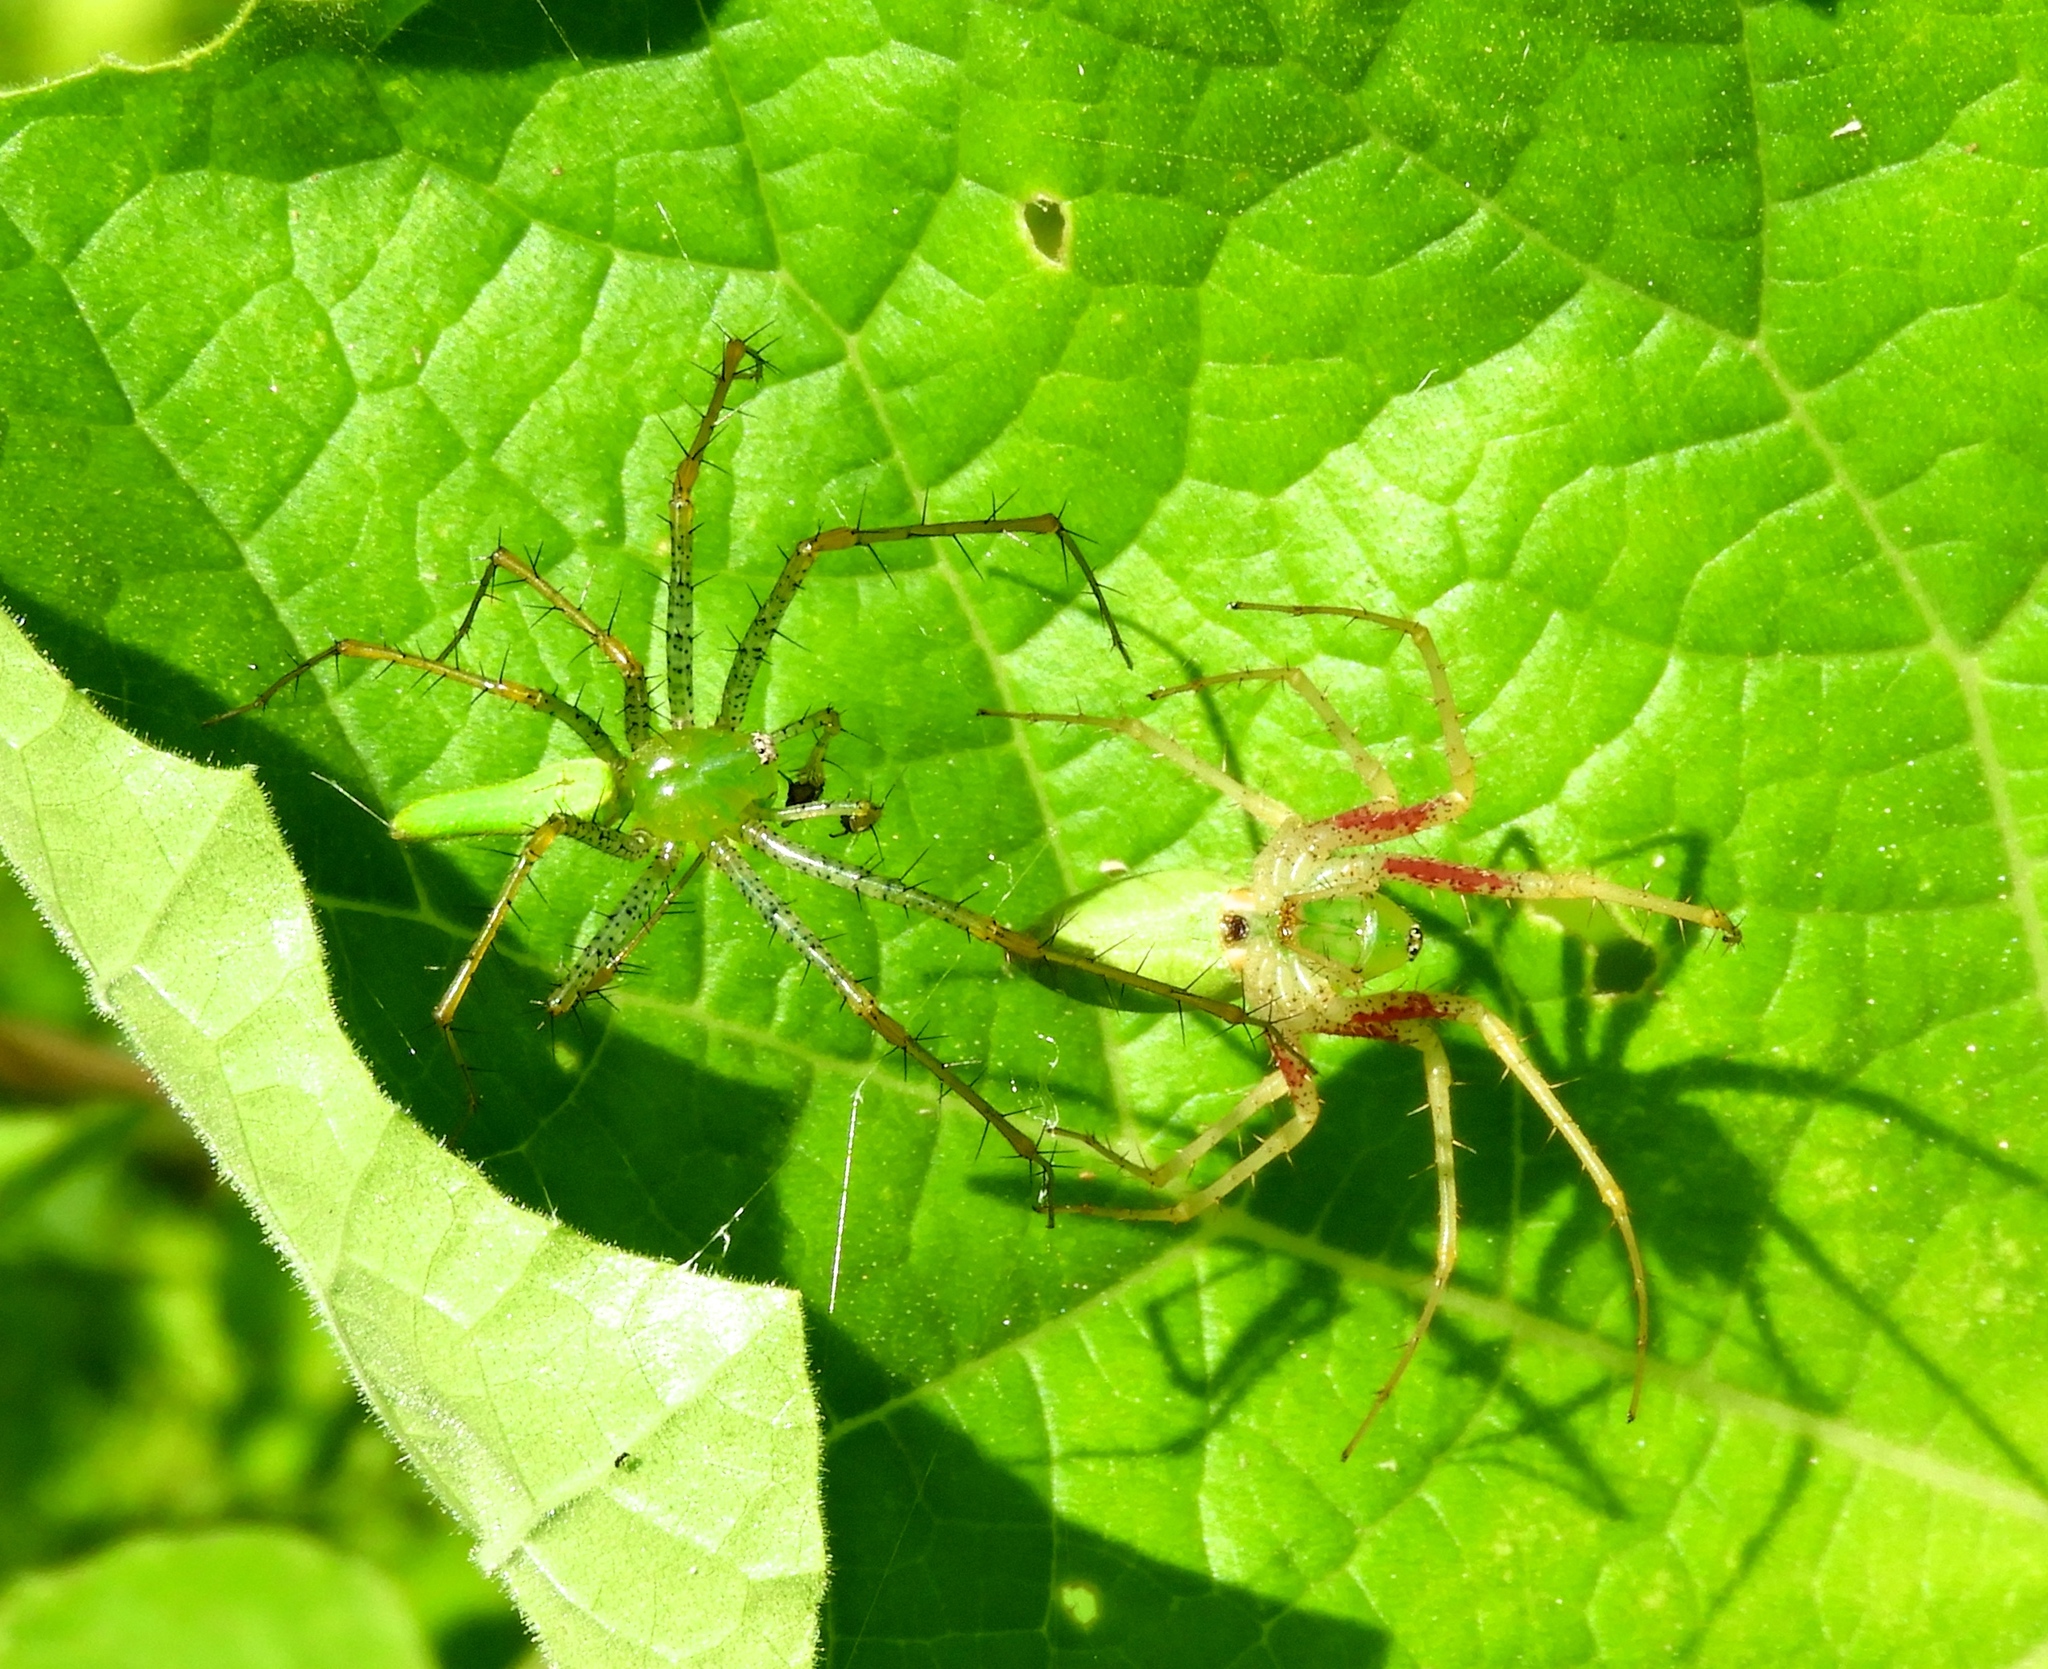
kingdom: Animalia
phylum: Arthropoda
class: Arachnida
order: Araneae
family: Oxyopidae
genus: Peucetia
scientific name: Peucetia
